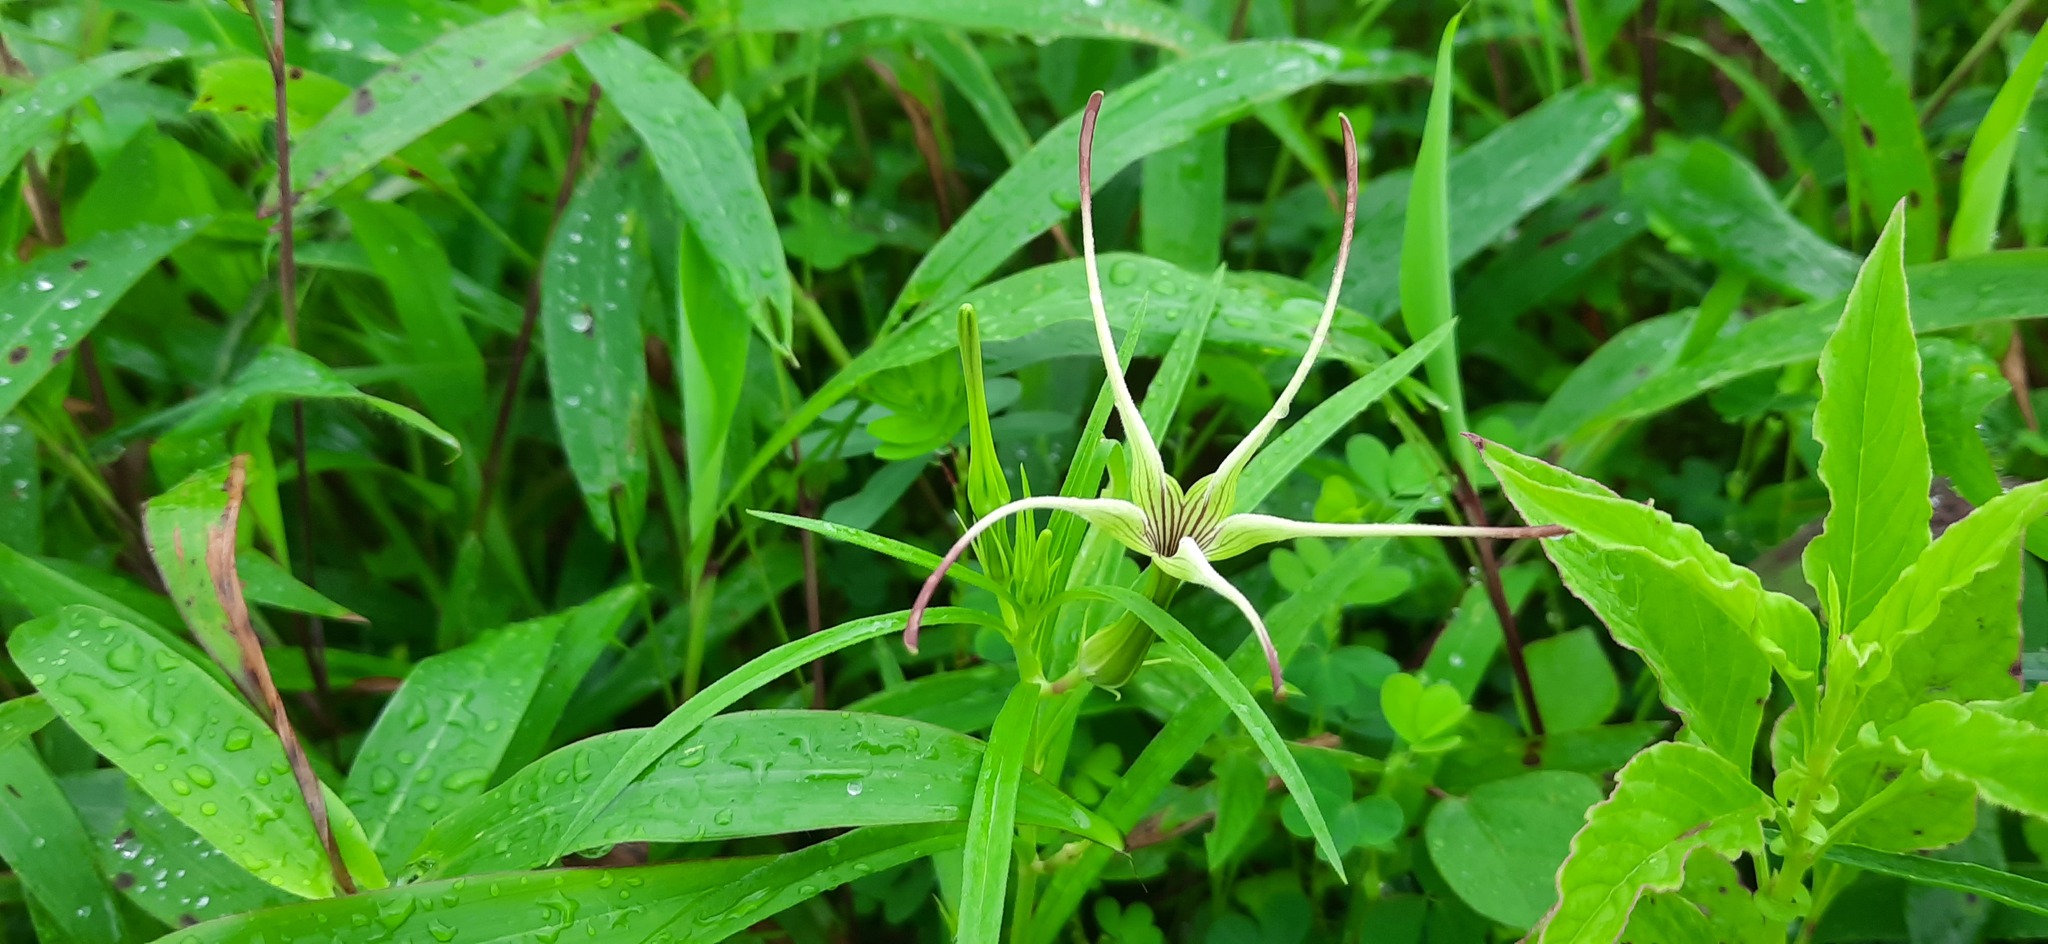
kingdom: Plantae
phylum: Tracheophyta
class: Magnoliopsida
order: Gentianales
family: Apocynaceae
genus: Ceropegia
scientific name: Ceropegia attenuata
